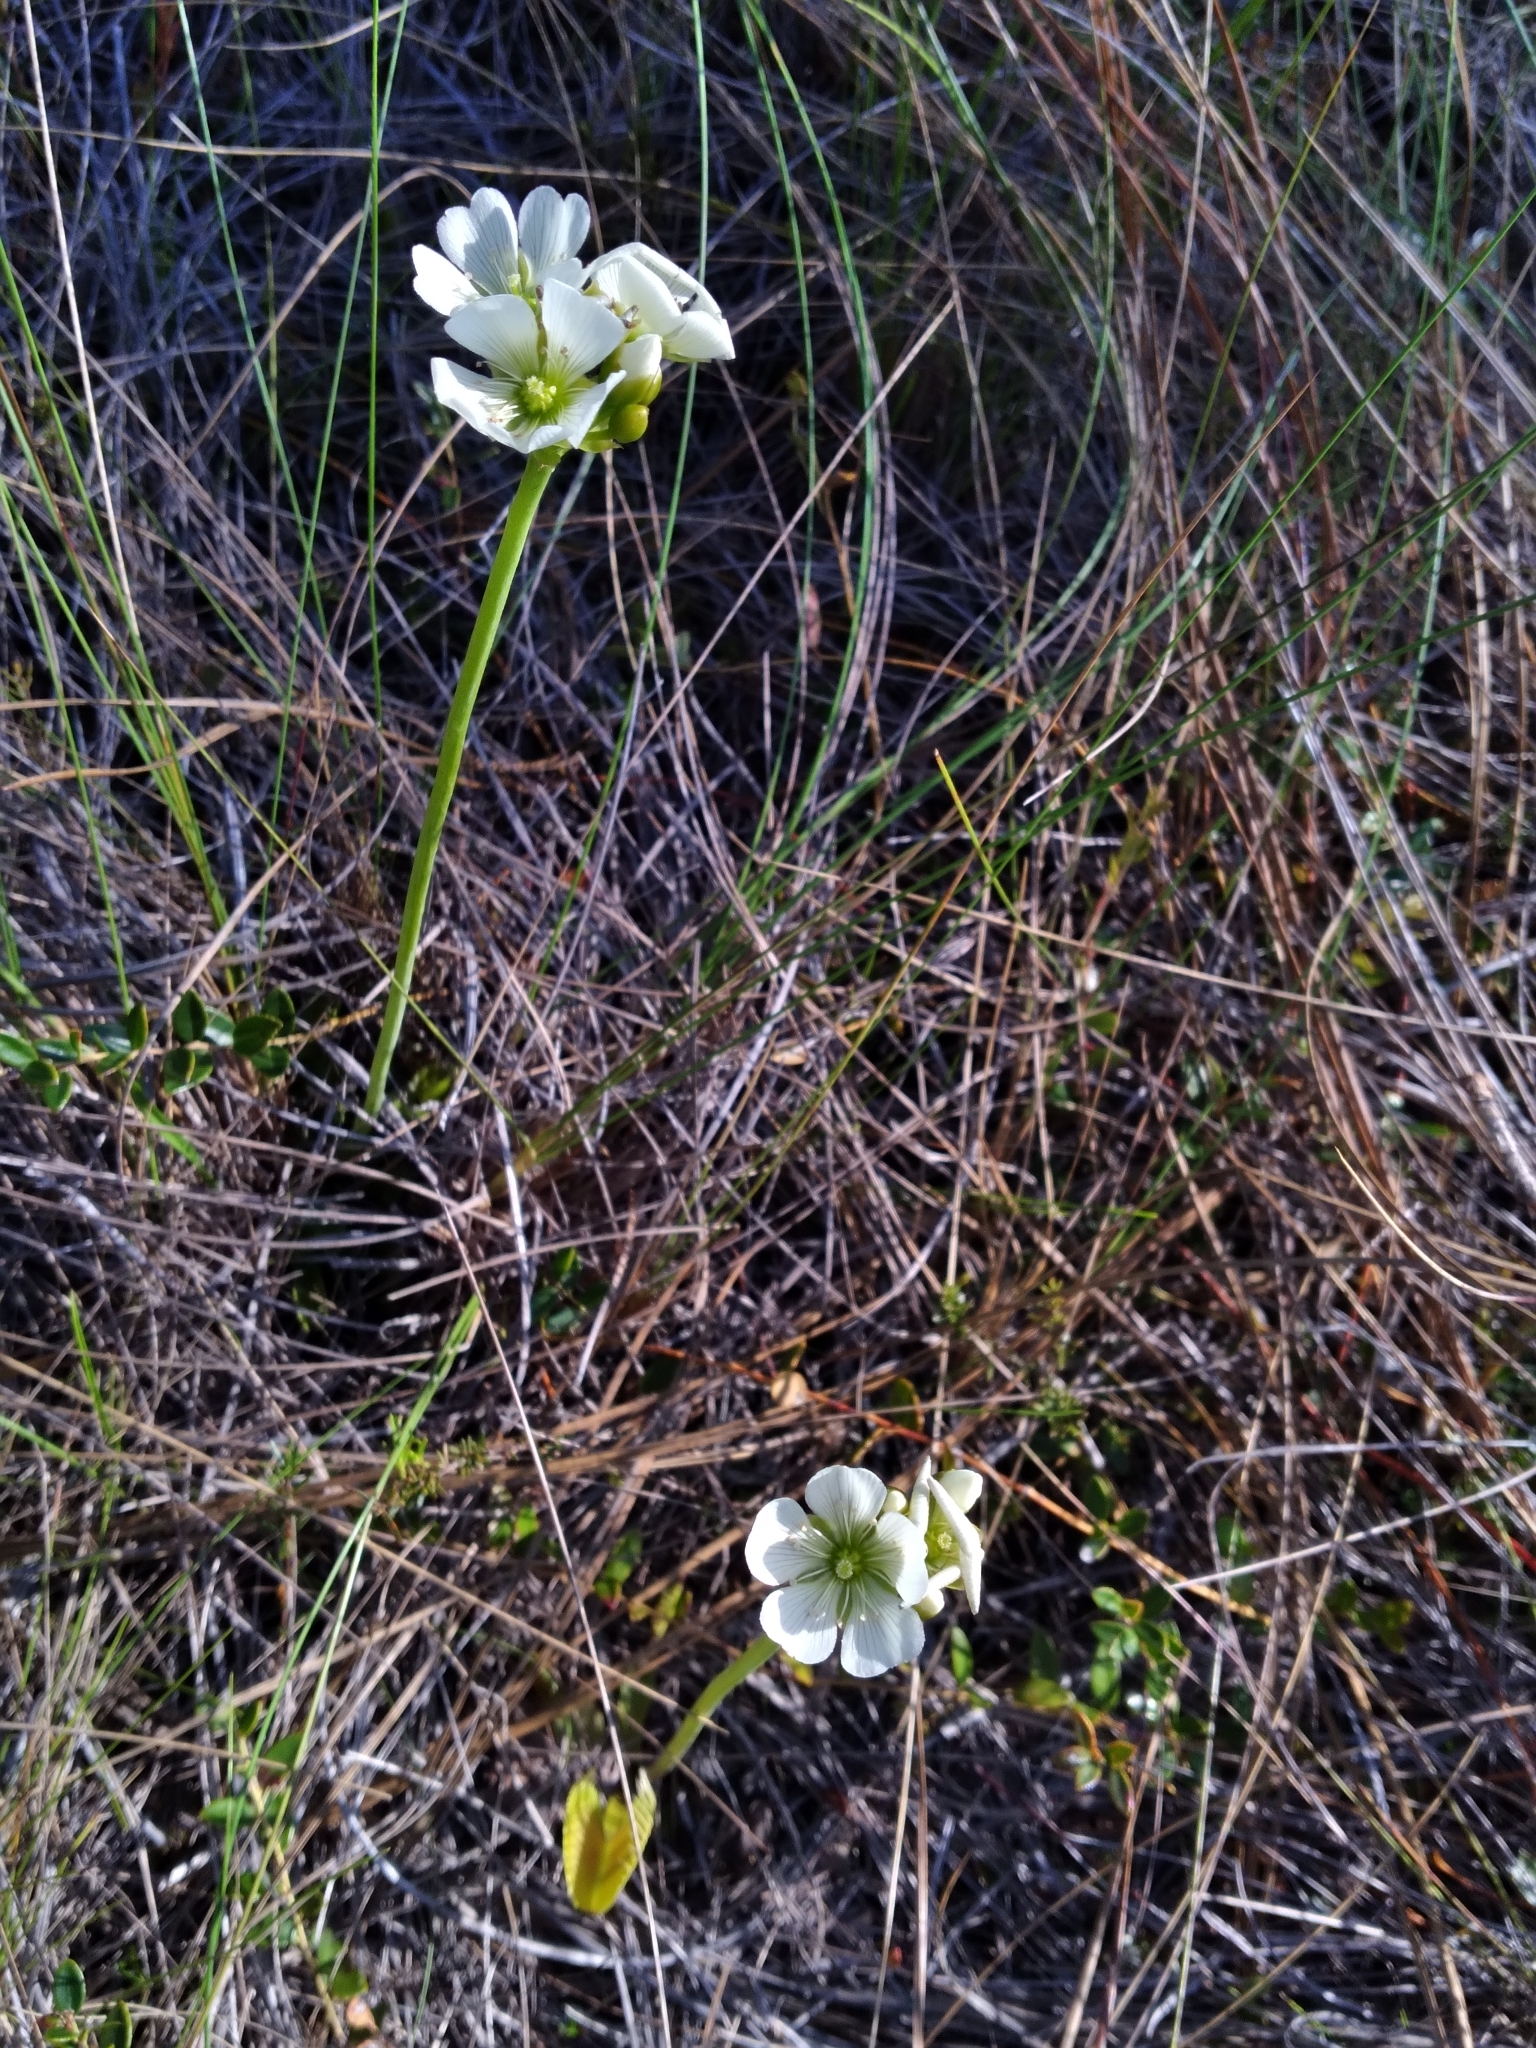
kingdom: Plantae
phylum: Tracheophyta
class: Magnoliopsida
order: Caryophyllales
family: Droseraceae
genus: Dionaea
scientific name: Dionaea muscipula
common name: Venus flytrap
